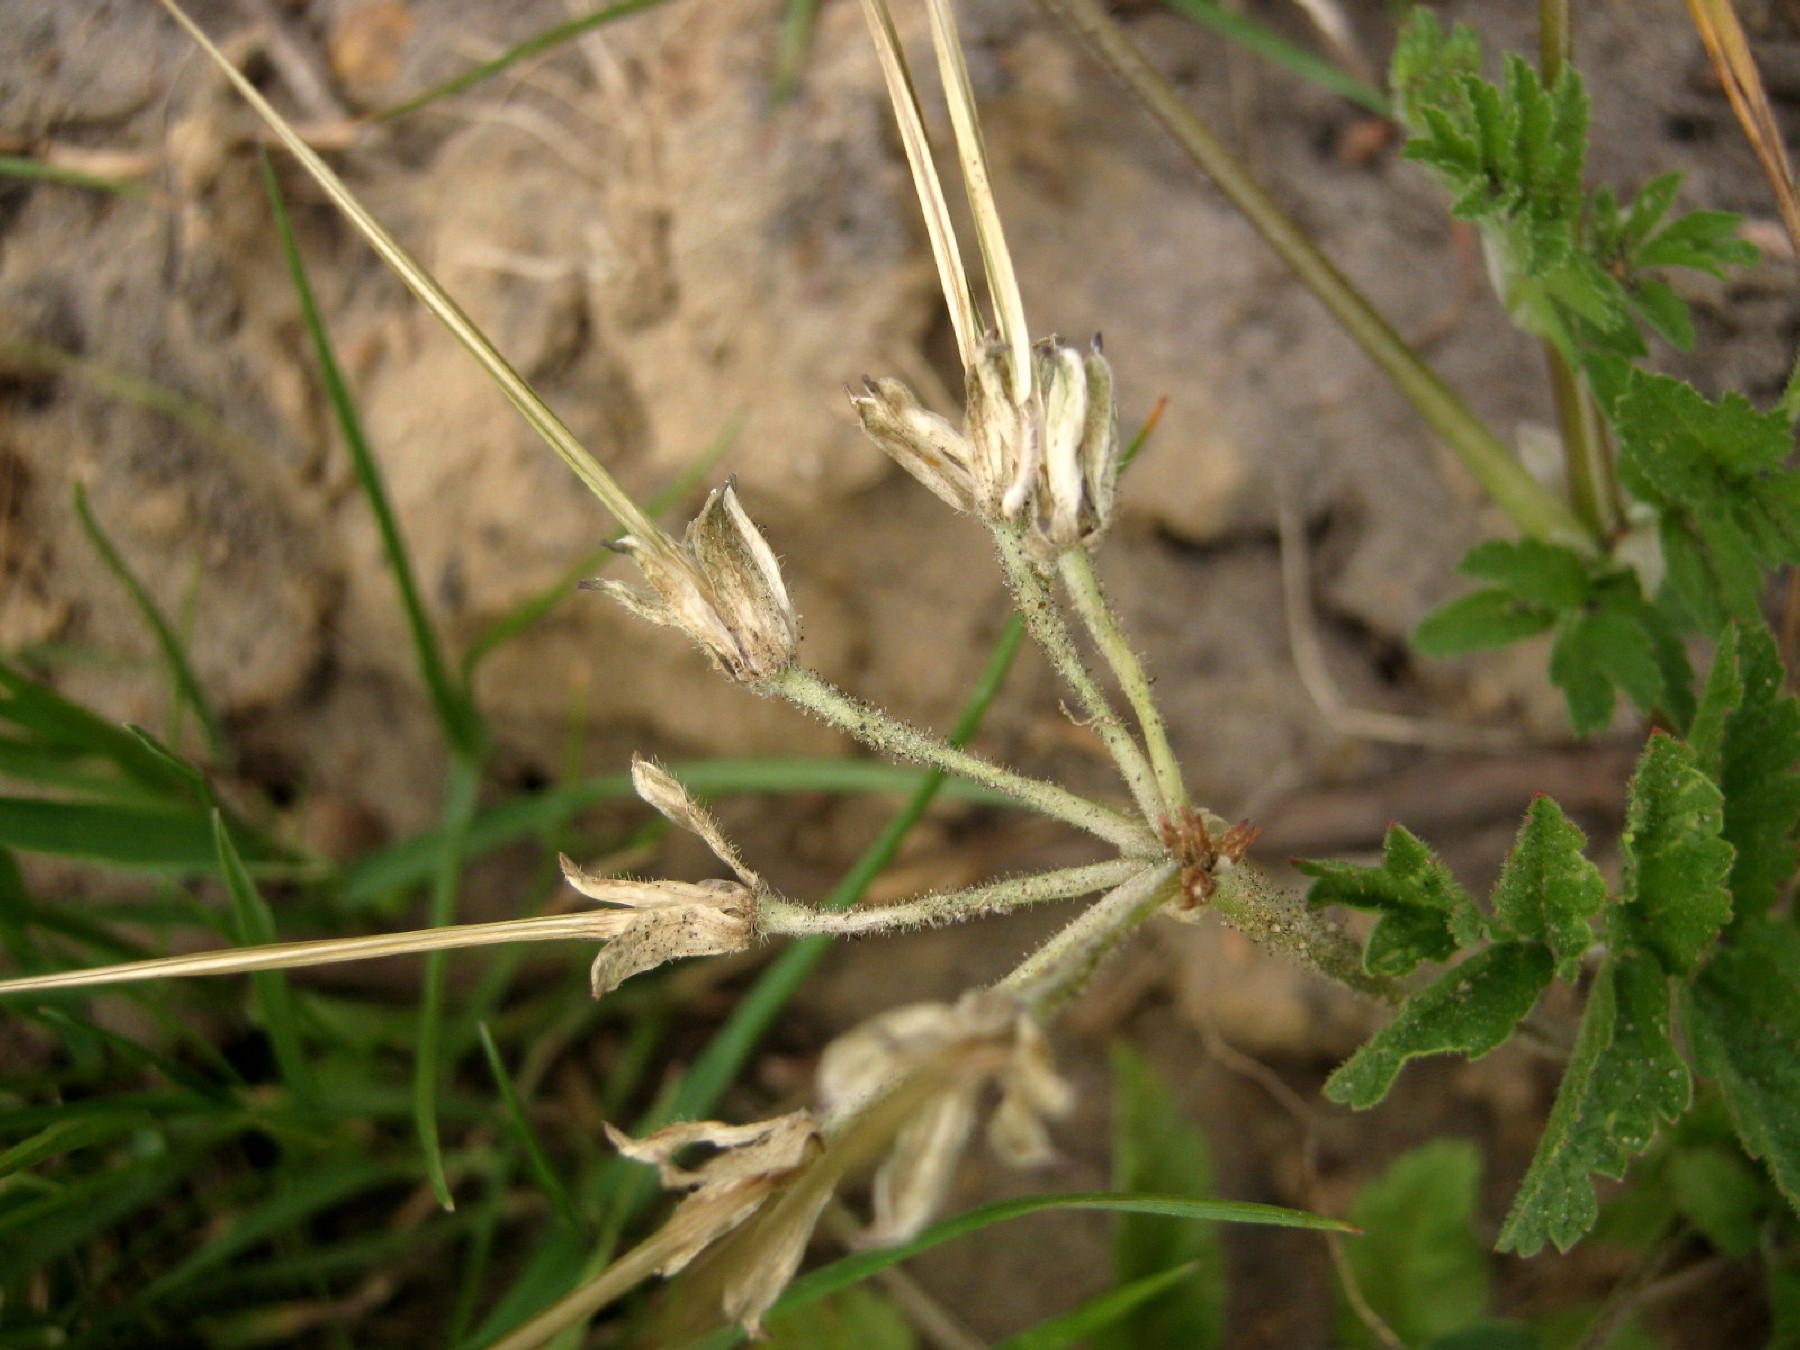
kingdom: Plantae
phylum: Tracheophyta
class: Magnoliopsida
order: Geraniales
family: Geraniaceae
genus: Erodium
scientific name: Erodium moschatum
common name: Musk stork's-bill
